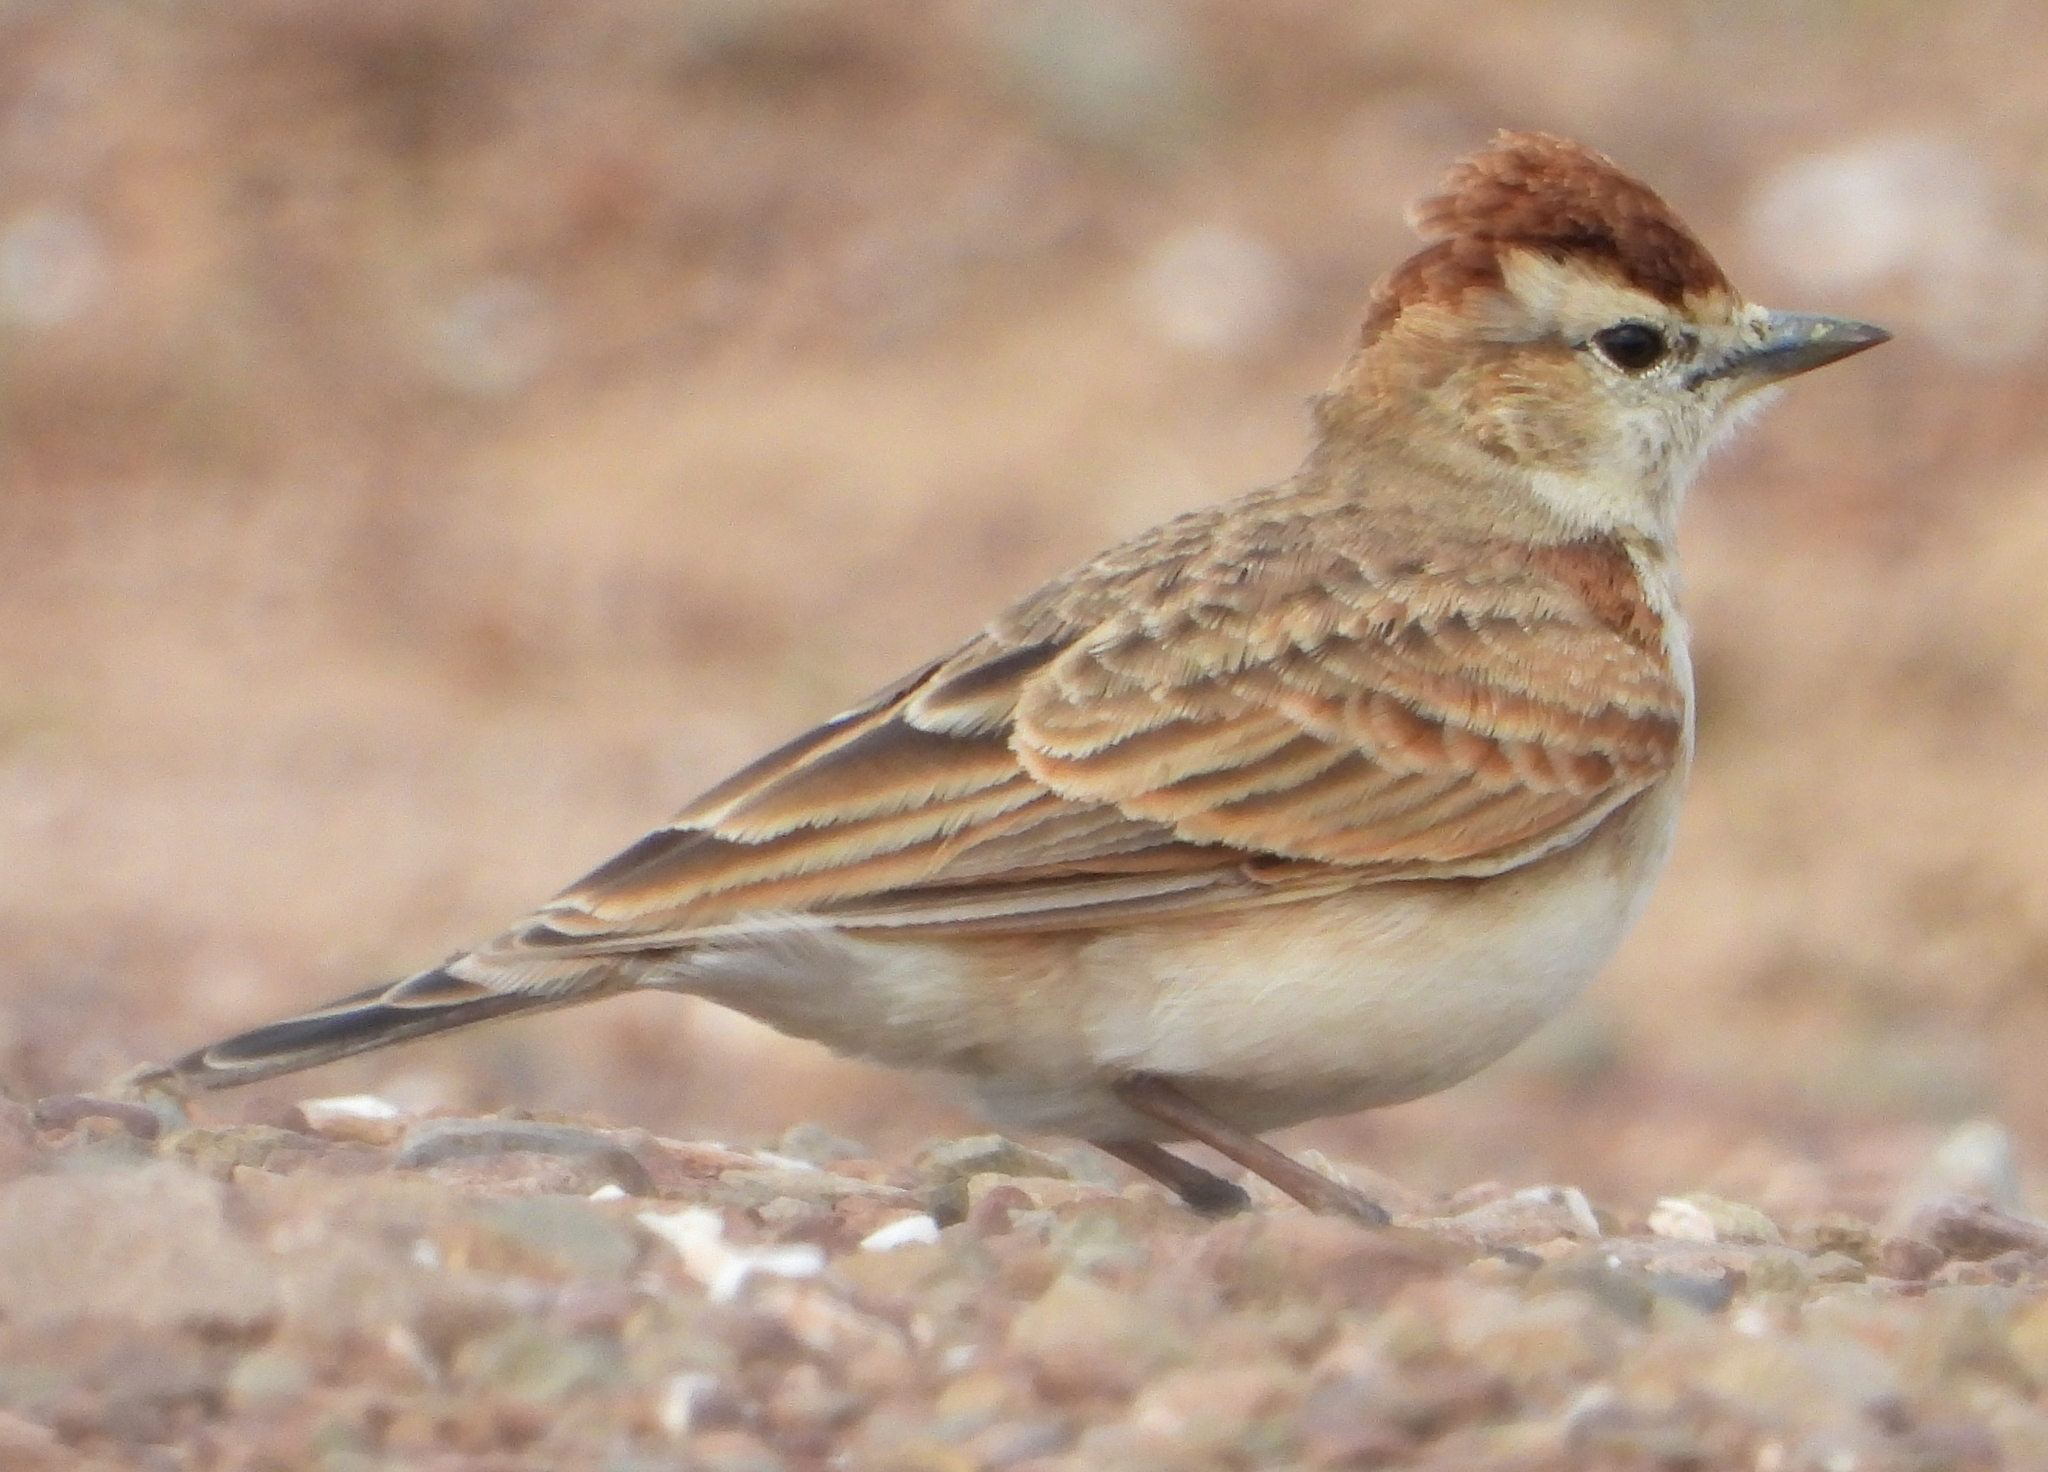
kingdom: Animalia
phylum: Chordata
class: Aves
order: Passeriformes
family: Alaudidae
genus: Calandrella
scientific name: Calandrella cinerea
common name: Red-capped lark
